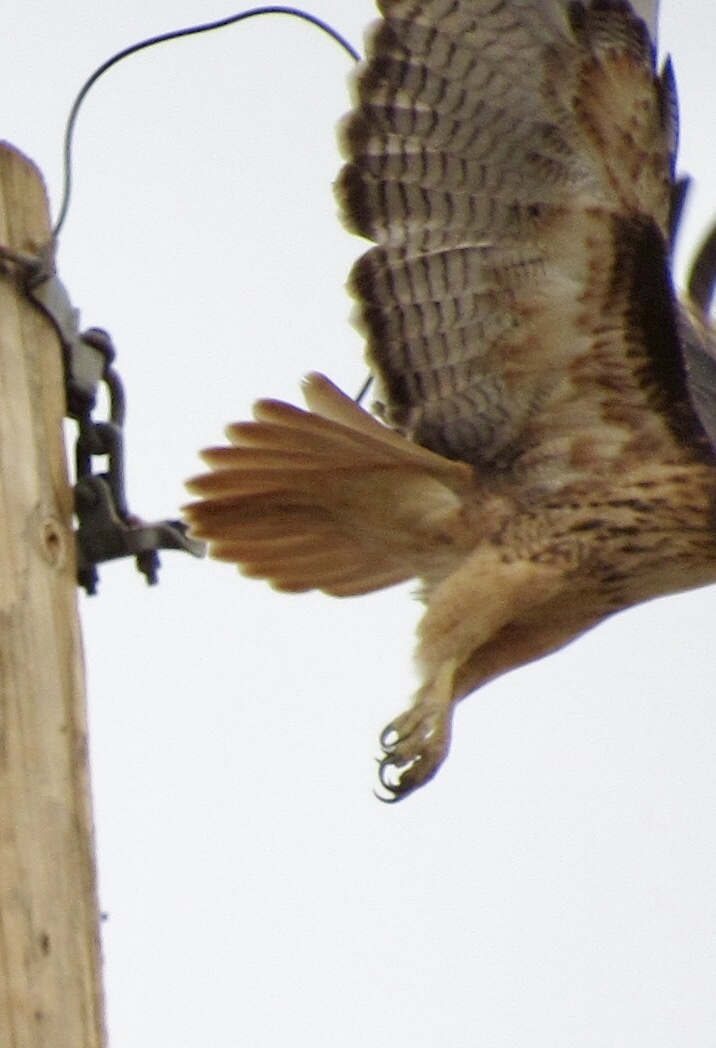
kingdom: Animalia
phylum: Chordata
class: Aves
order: Accipitriformes
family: Accipitridae
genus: Buteo
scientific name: Buteo jamaicensis
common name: Red-tailed hawk
